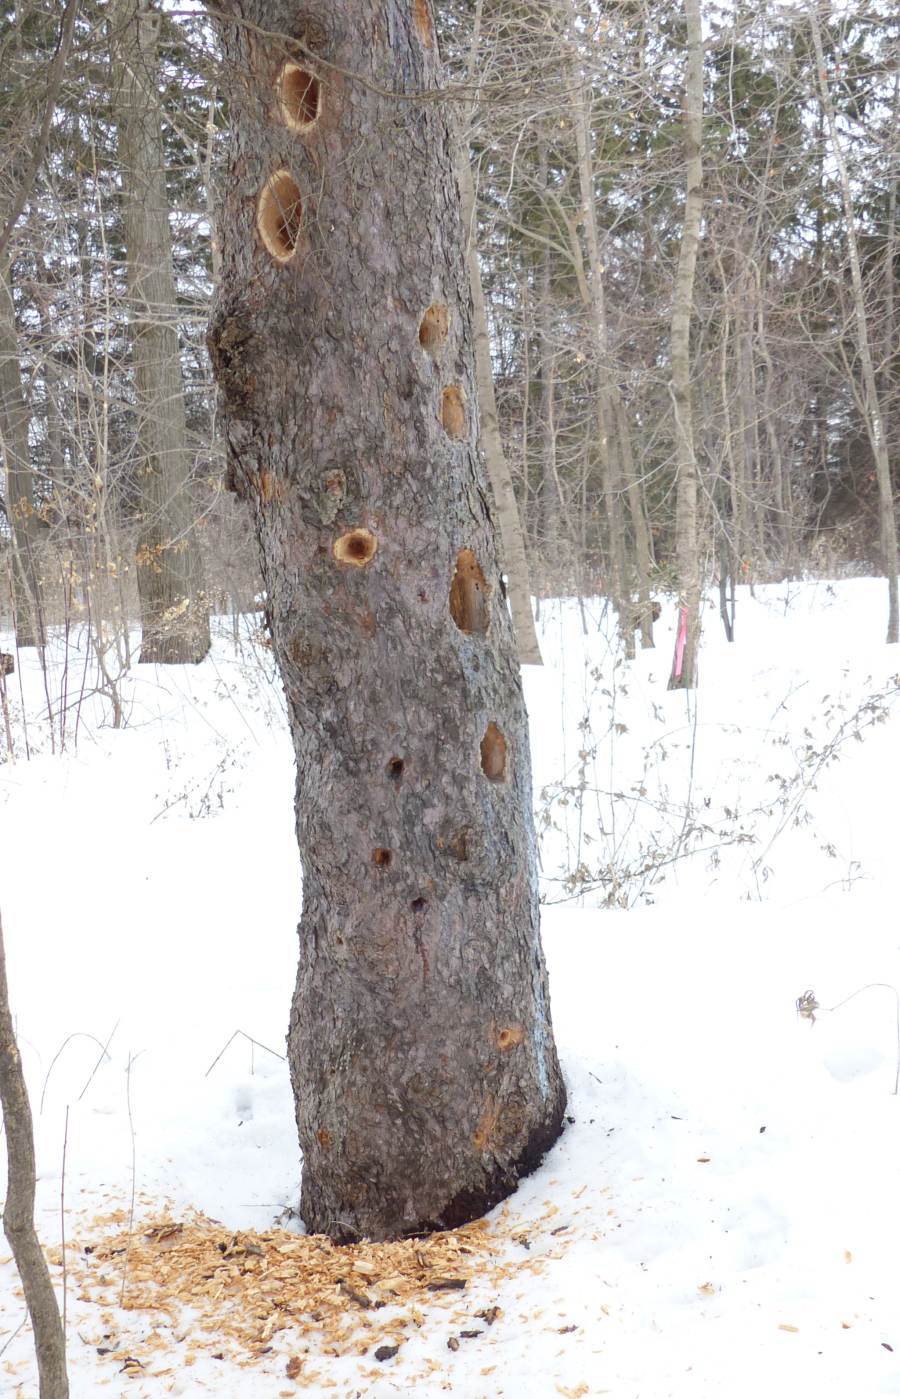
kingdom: Animalia
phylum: Chordata
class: Aves
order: Piciformes
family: Picidae
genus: Dryocopus
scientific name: Dryocopus pileatus
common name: Pileated woodpecker
